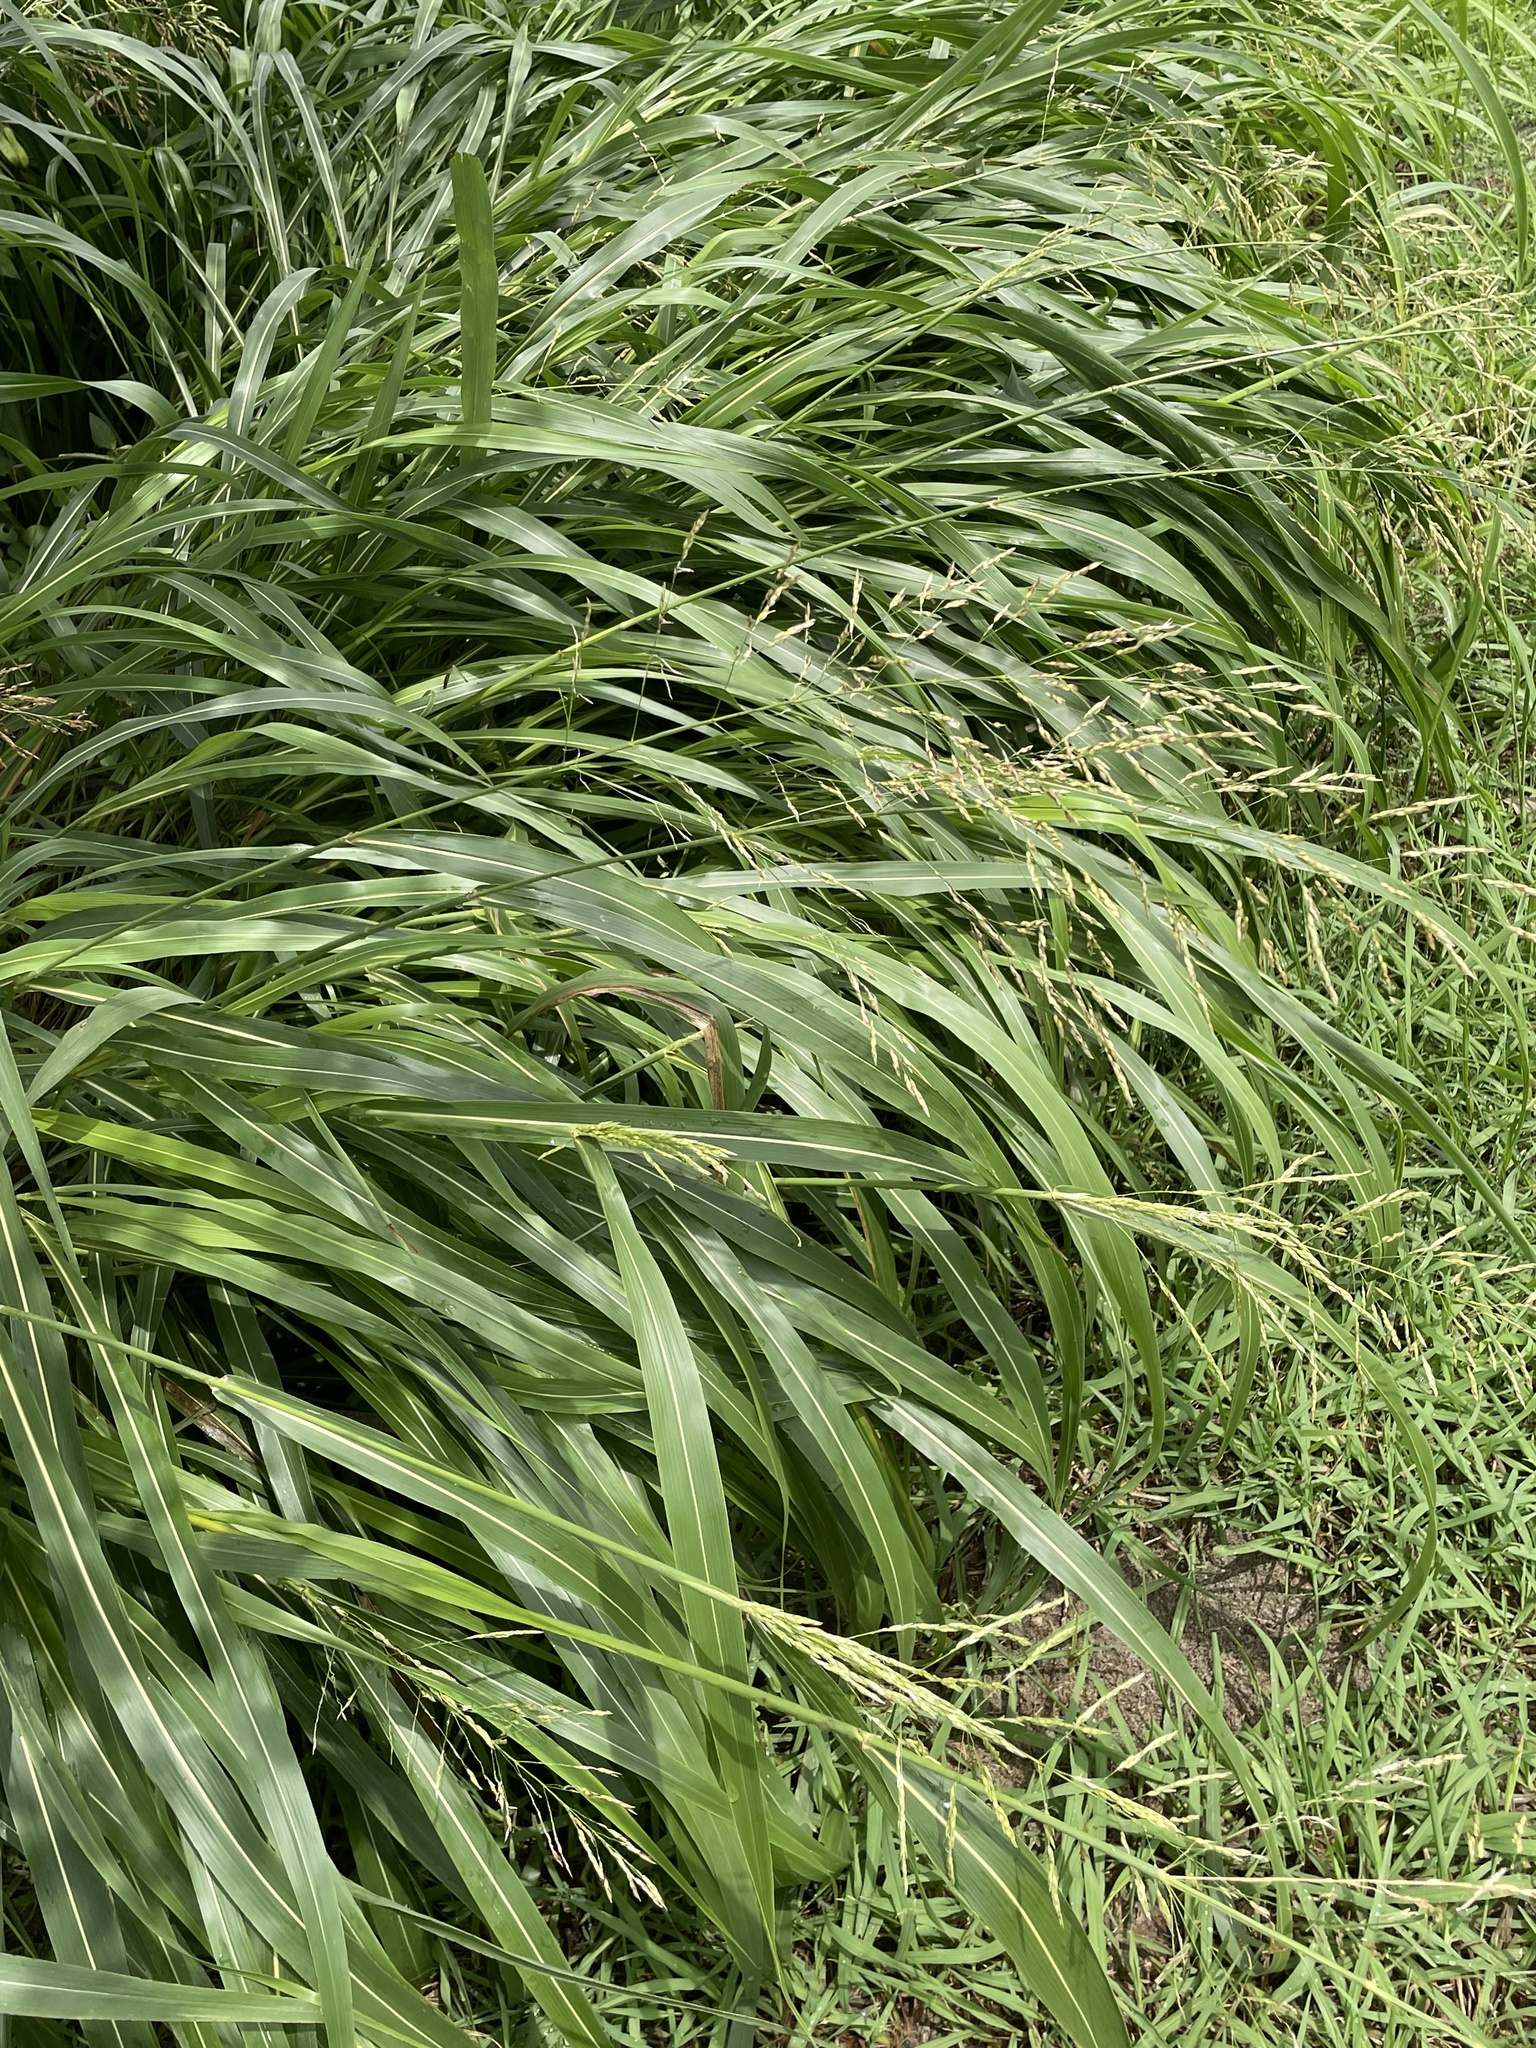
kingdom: Plantae
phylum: Tracheophyta
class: Liliopsida
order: Poales
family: Poaceae
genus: Sorghum
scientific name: Sorghum halepense
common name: Johnson-grass
